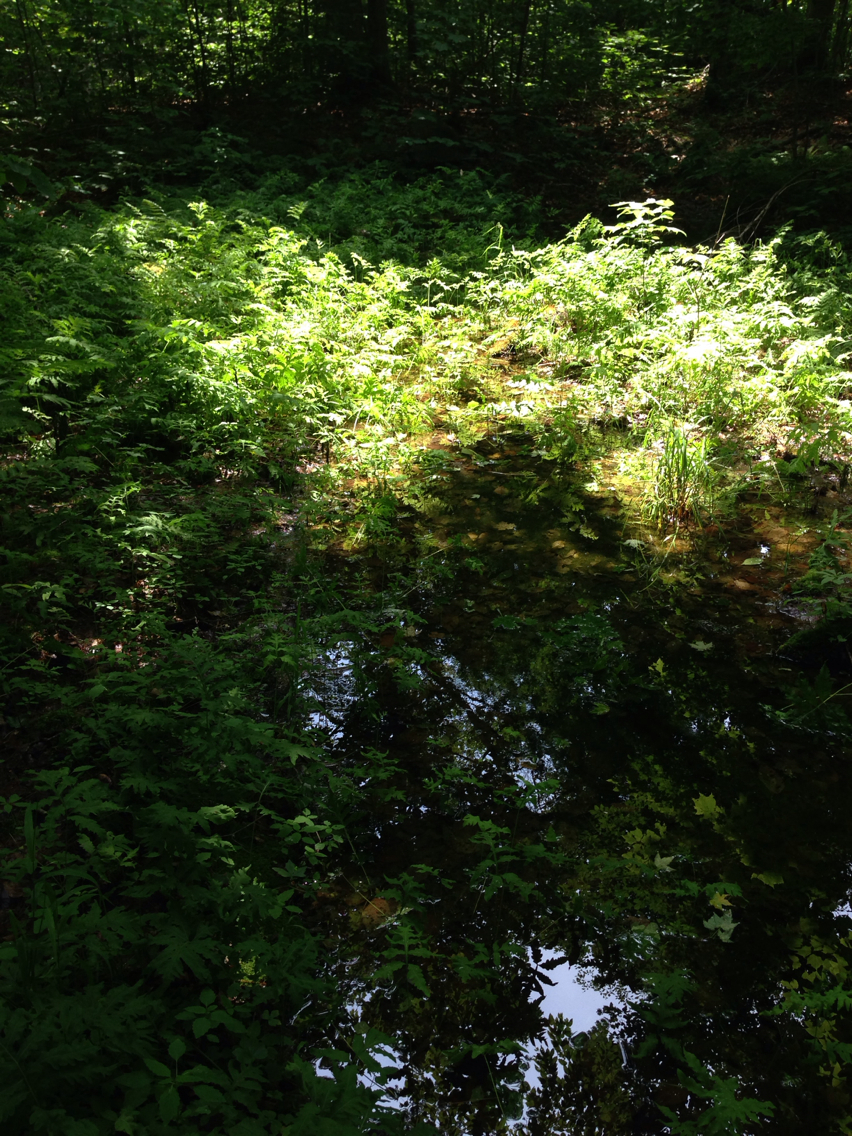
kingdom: Plantae
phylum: Tracheophyta
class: Polypodiopsida
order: Polypodiales
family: Onocleaceae
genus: Onoclea
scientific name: Onoclea sensibilis
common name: Sensitive fern
